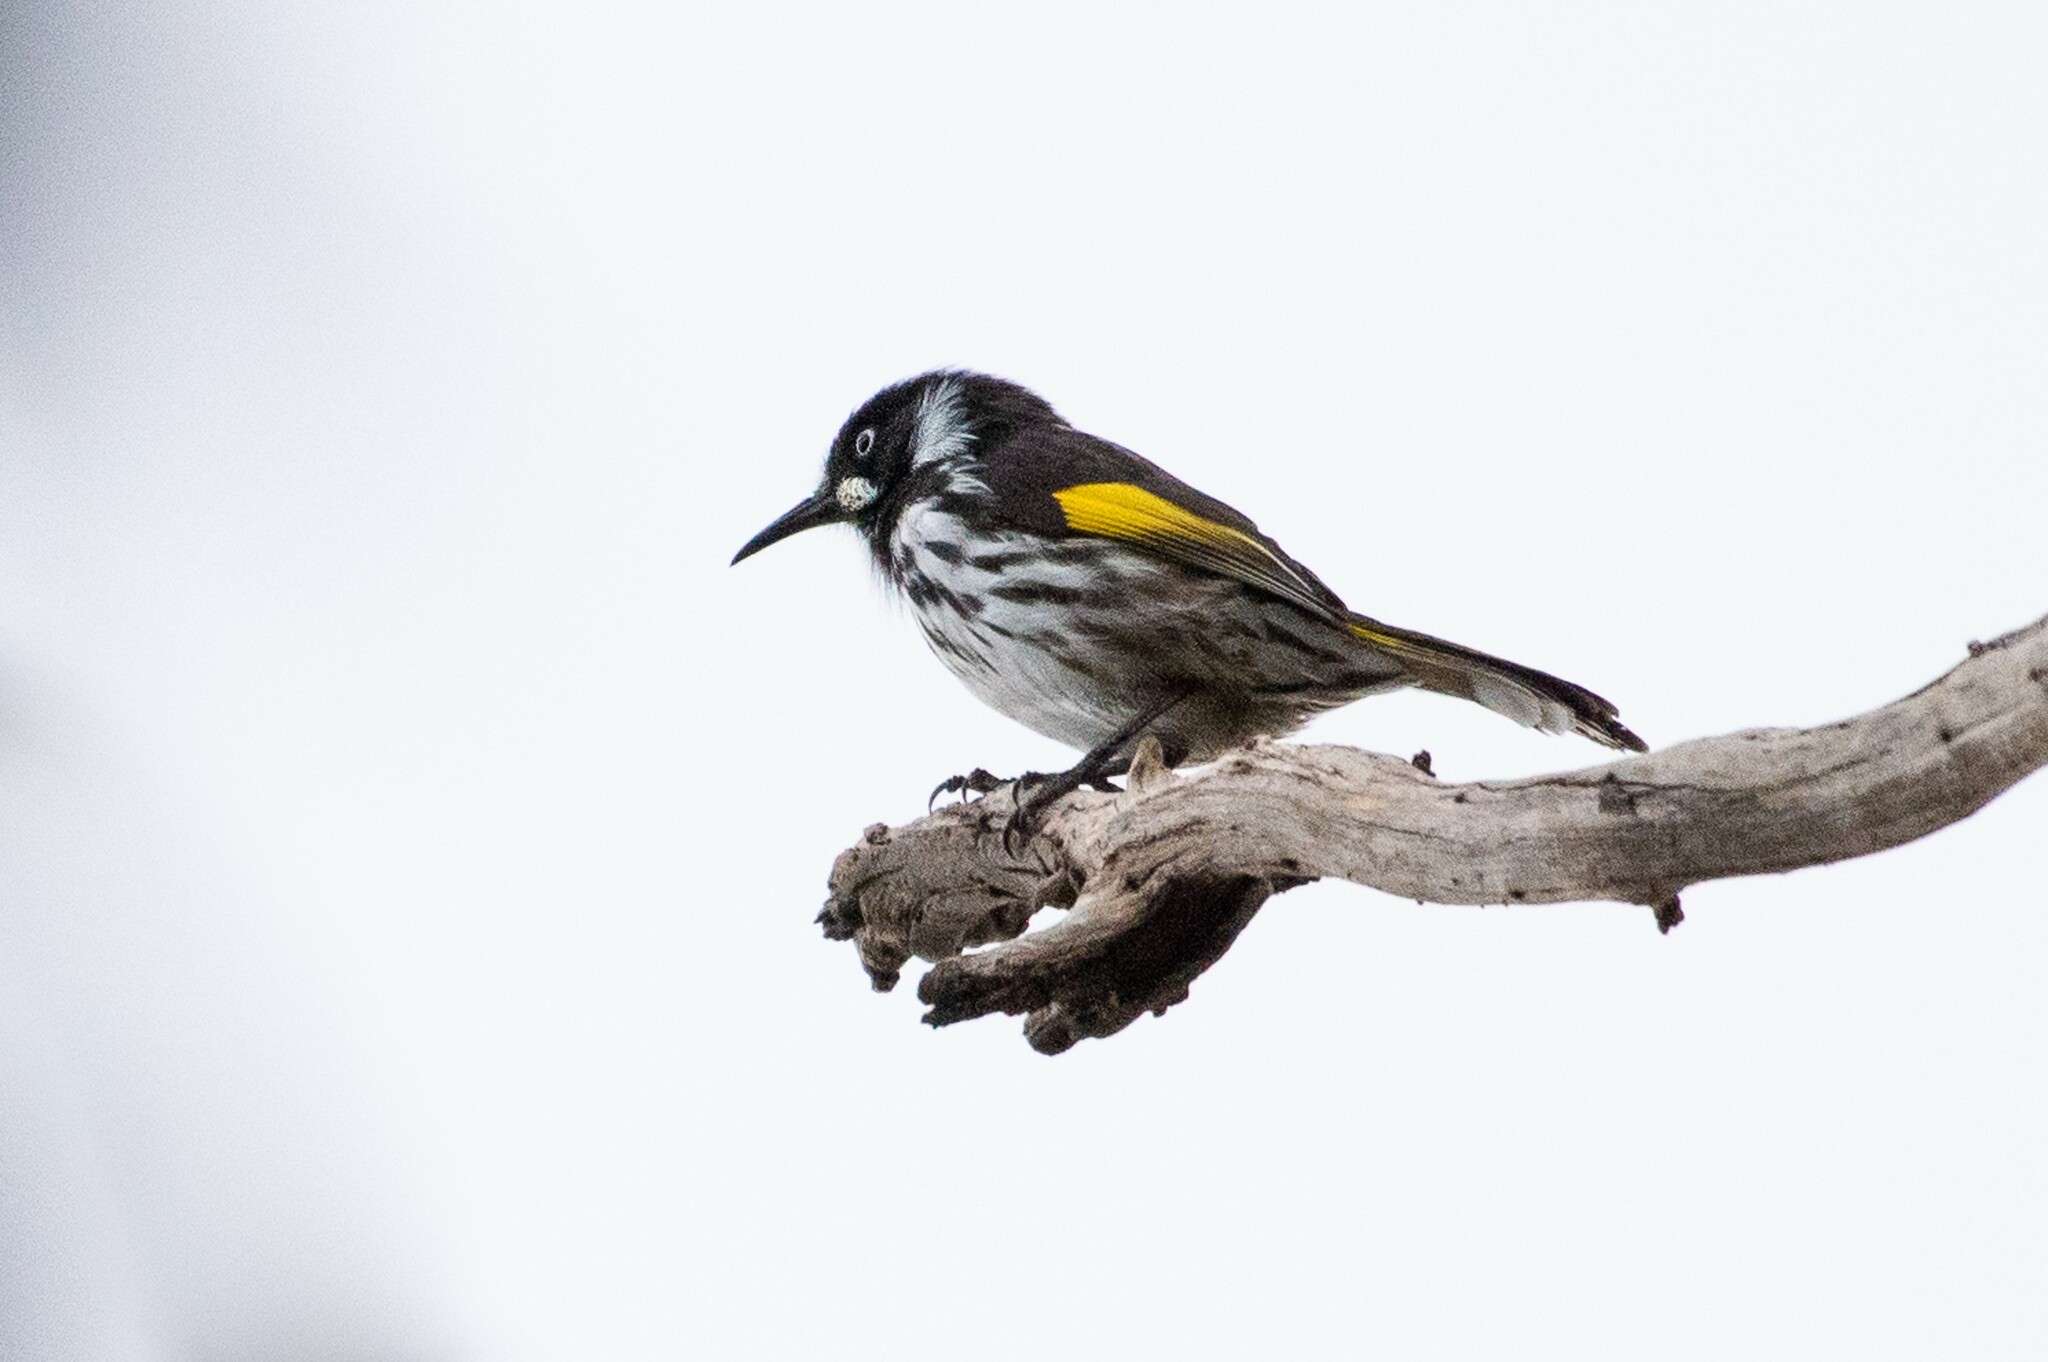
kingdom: Animalia
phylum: Chordata
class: Aves
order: Passeriformes
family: Meliphagidae
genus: Phylidonyris
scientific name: Phylidonyris novaehollandiae
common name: New holland honeyeater
